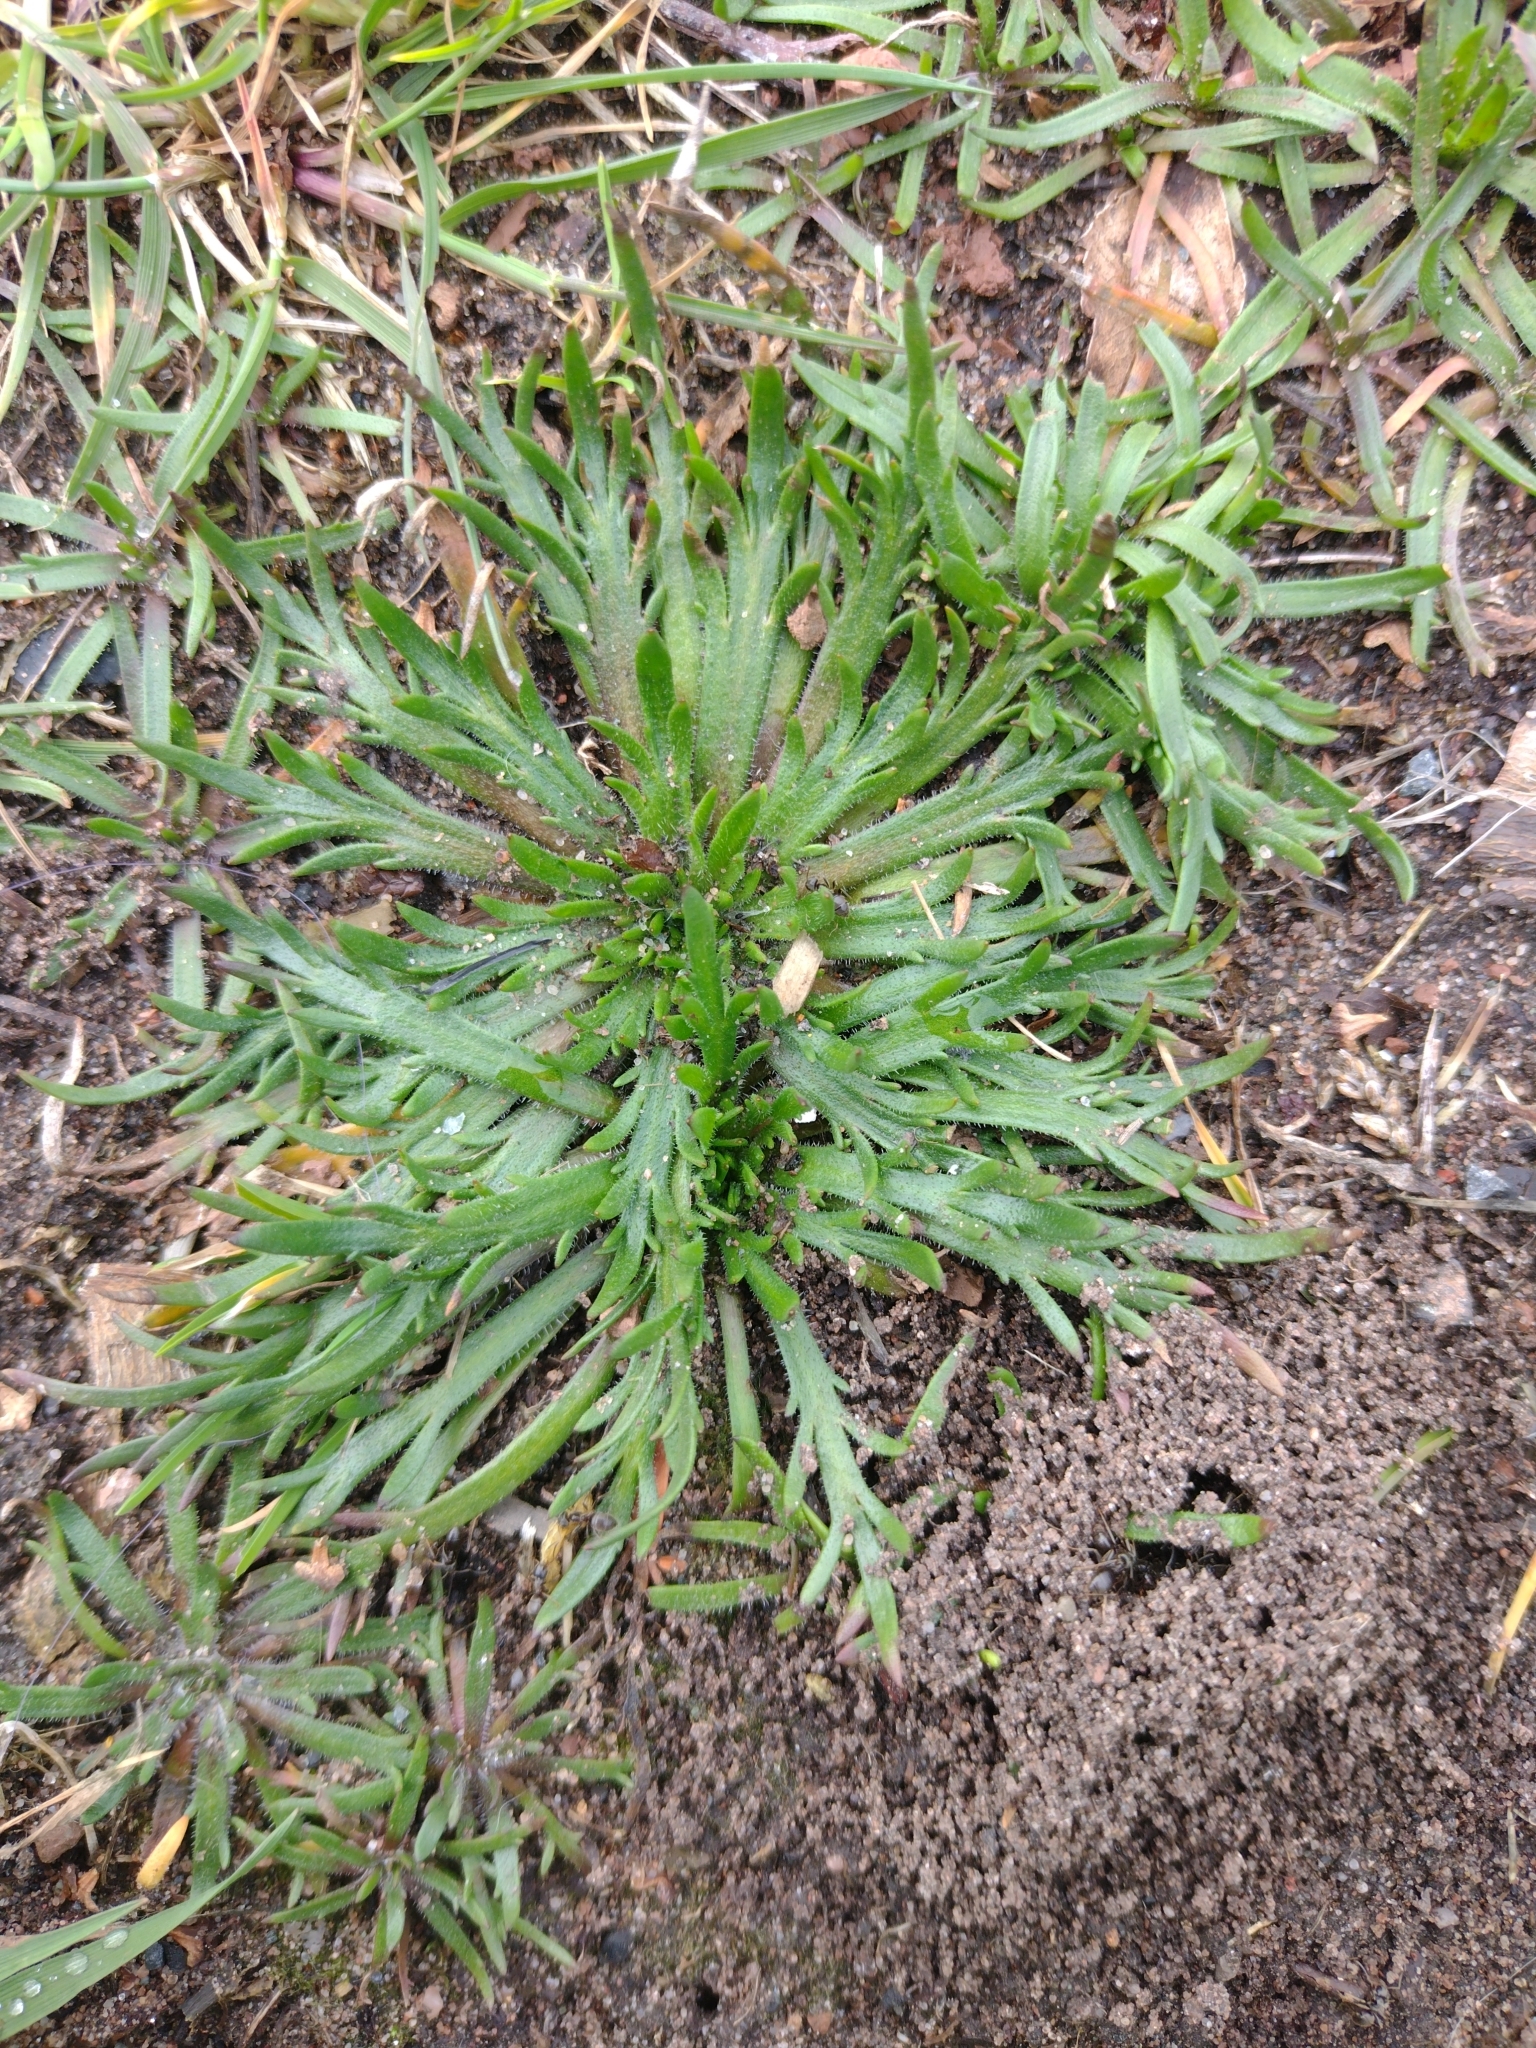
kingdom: Plantae
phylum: Tracheophyta
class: Magnoliopsida
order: Lamiales
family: Plantaginaceae
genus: Plantago
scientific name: Plantago coronopus
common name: Buck's-horn plantain
